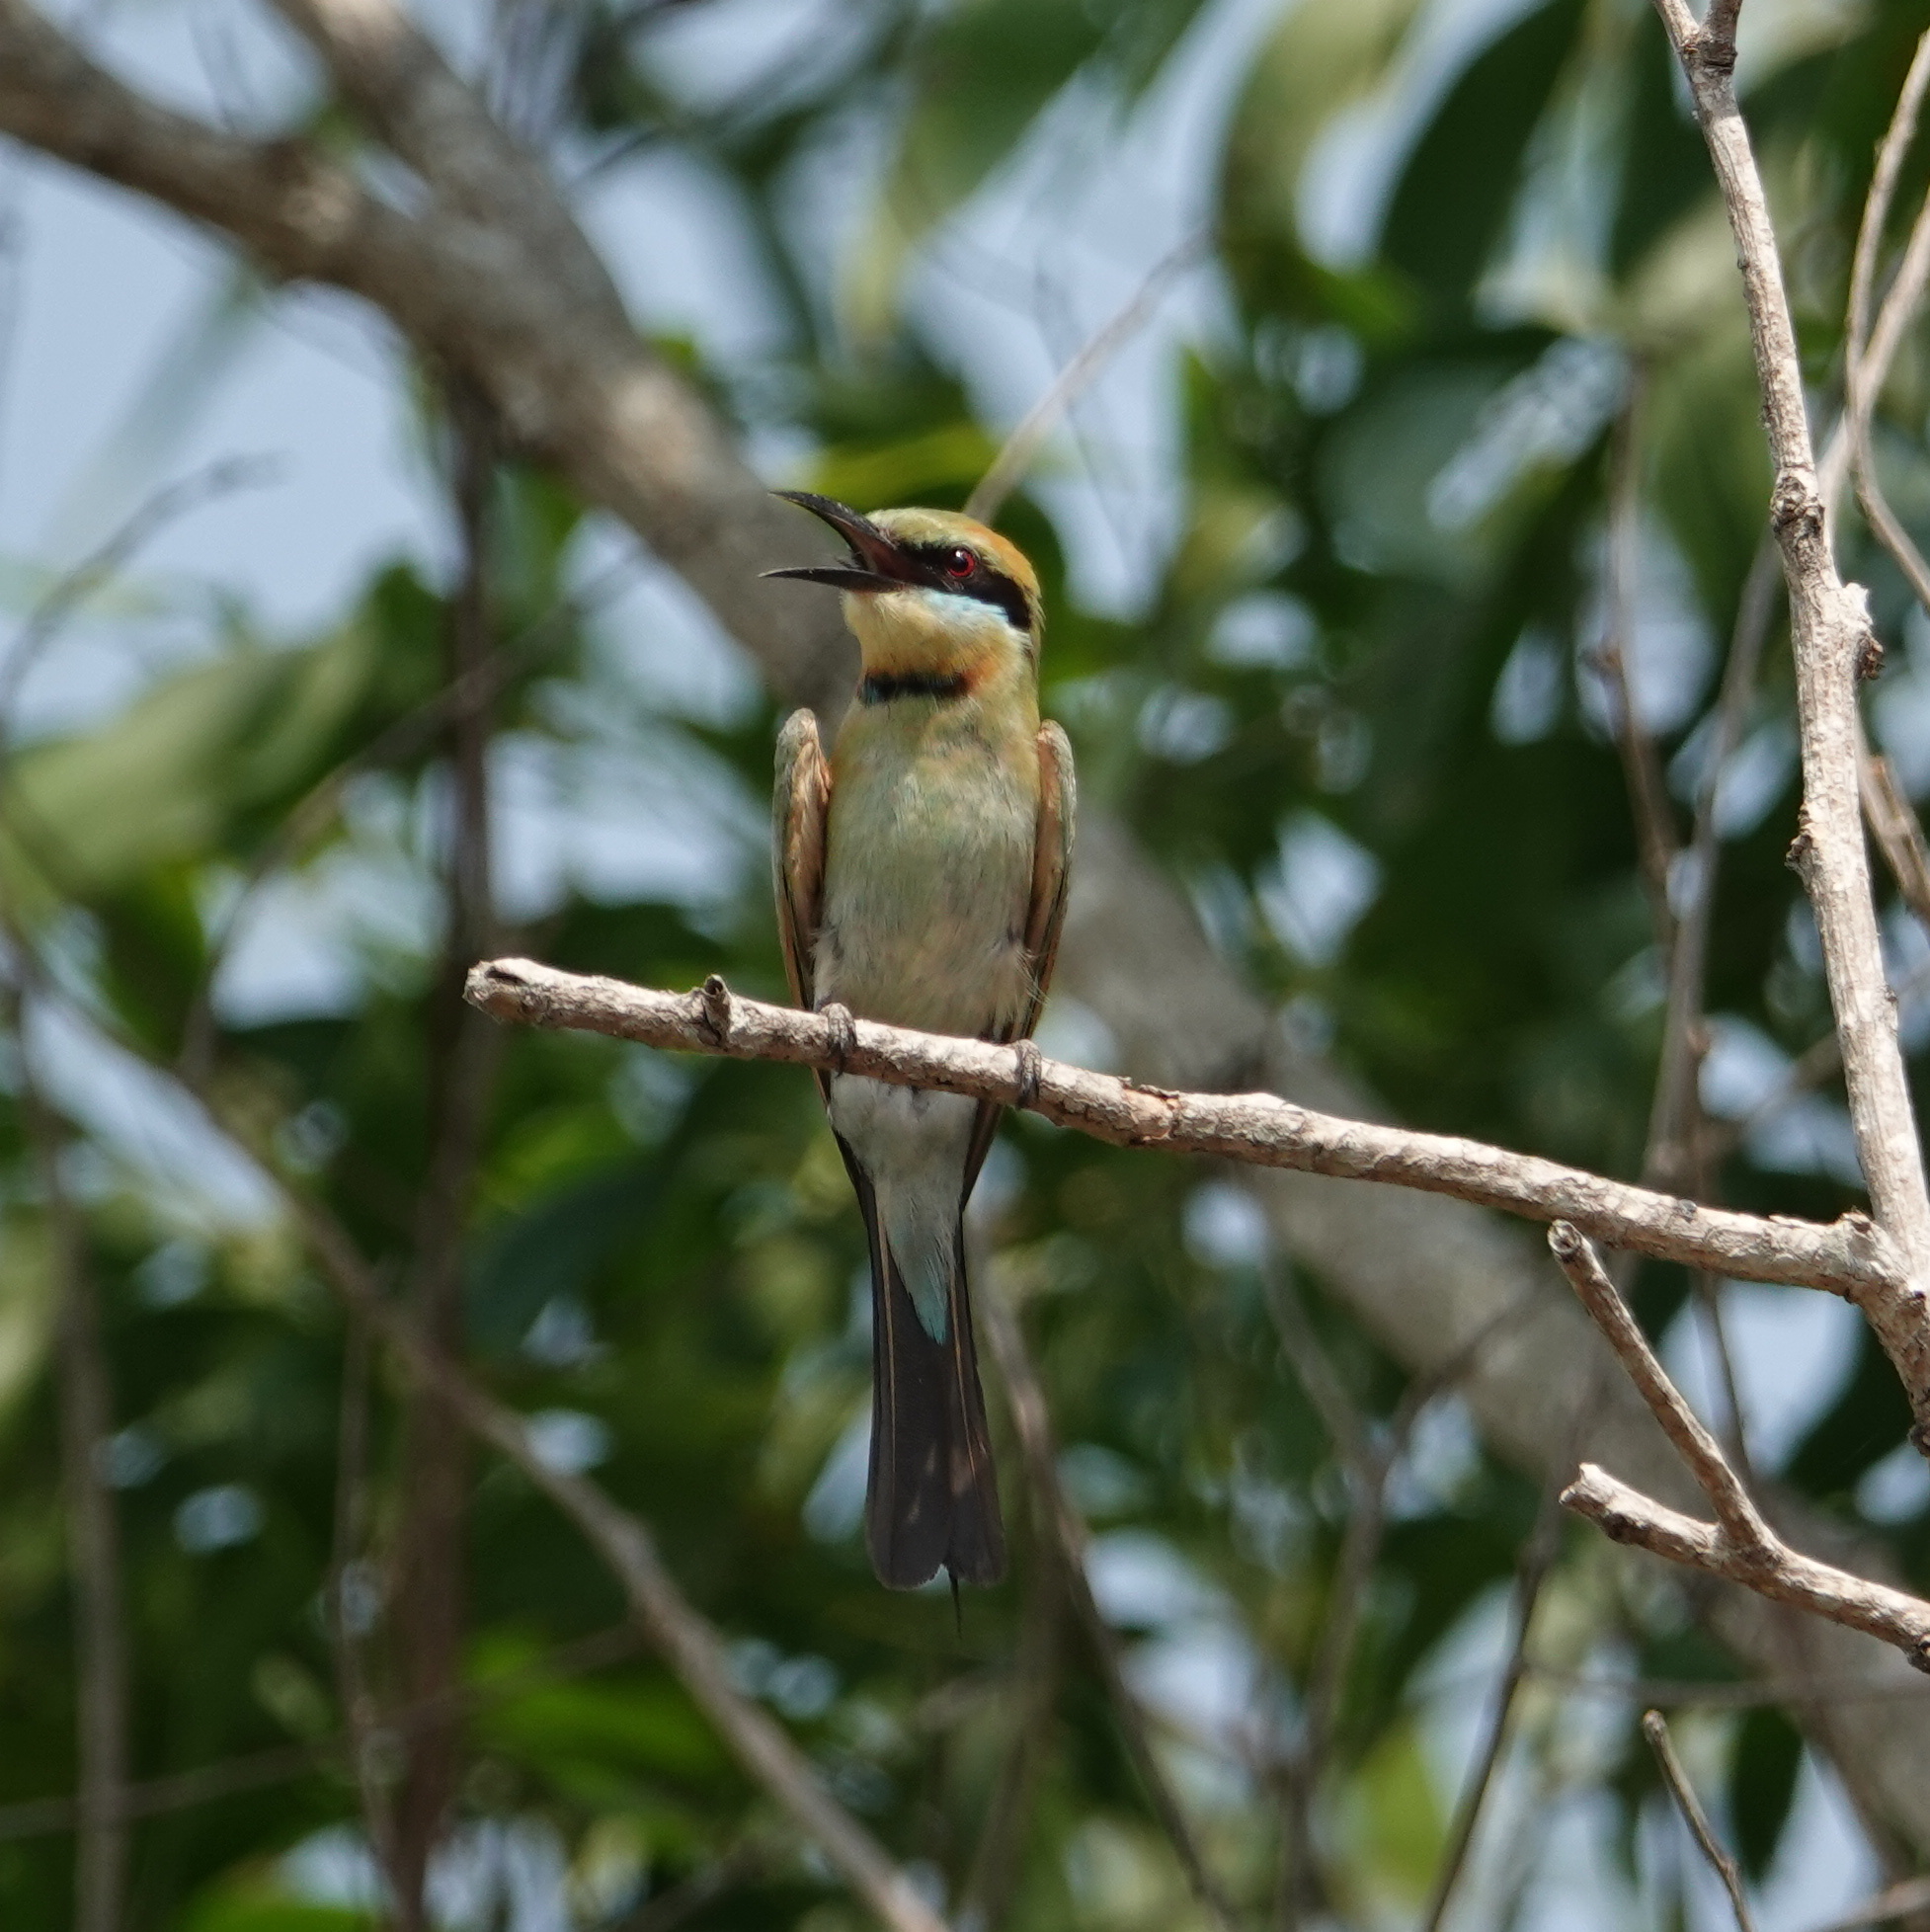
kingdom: Animalia
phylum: Chordata
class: Aves
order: Coraciiformes
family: Meropidae
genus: Merops
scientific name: Merops ornatus
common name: Rainbow bee-eater
